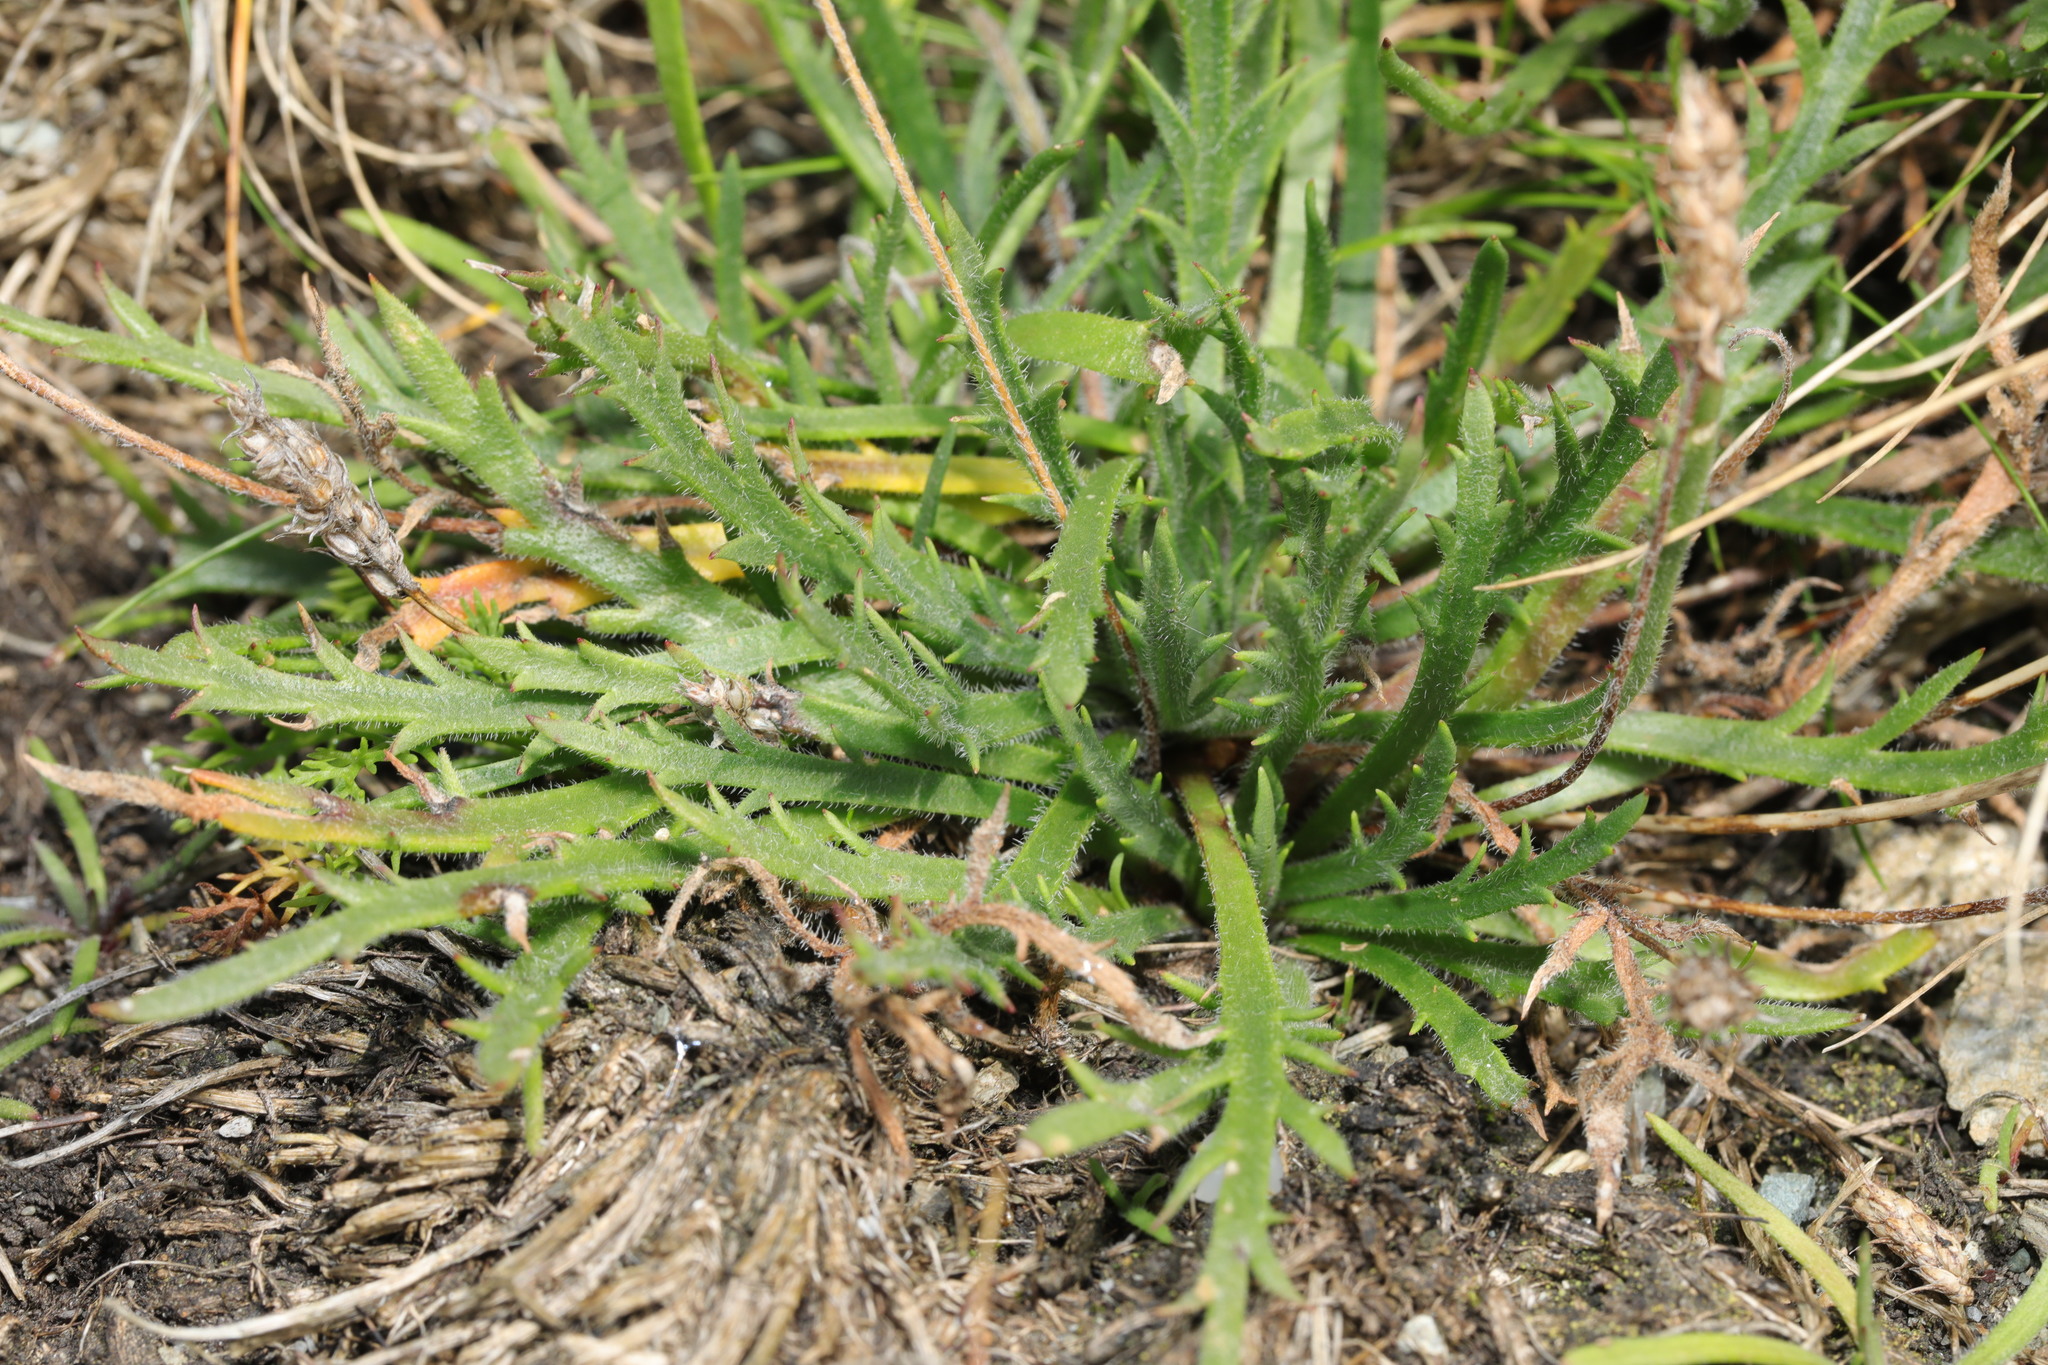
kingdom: Plantae
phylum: Tracheophyta
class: Magnoliopsida
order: Lamiales
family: Plantaginaceae
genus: Plantago
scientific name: Plantago coronopus
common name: Buck's-horn plantain
